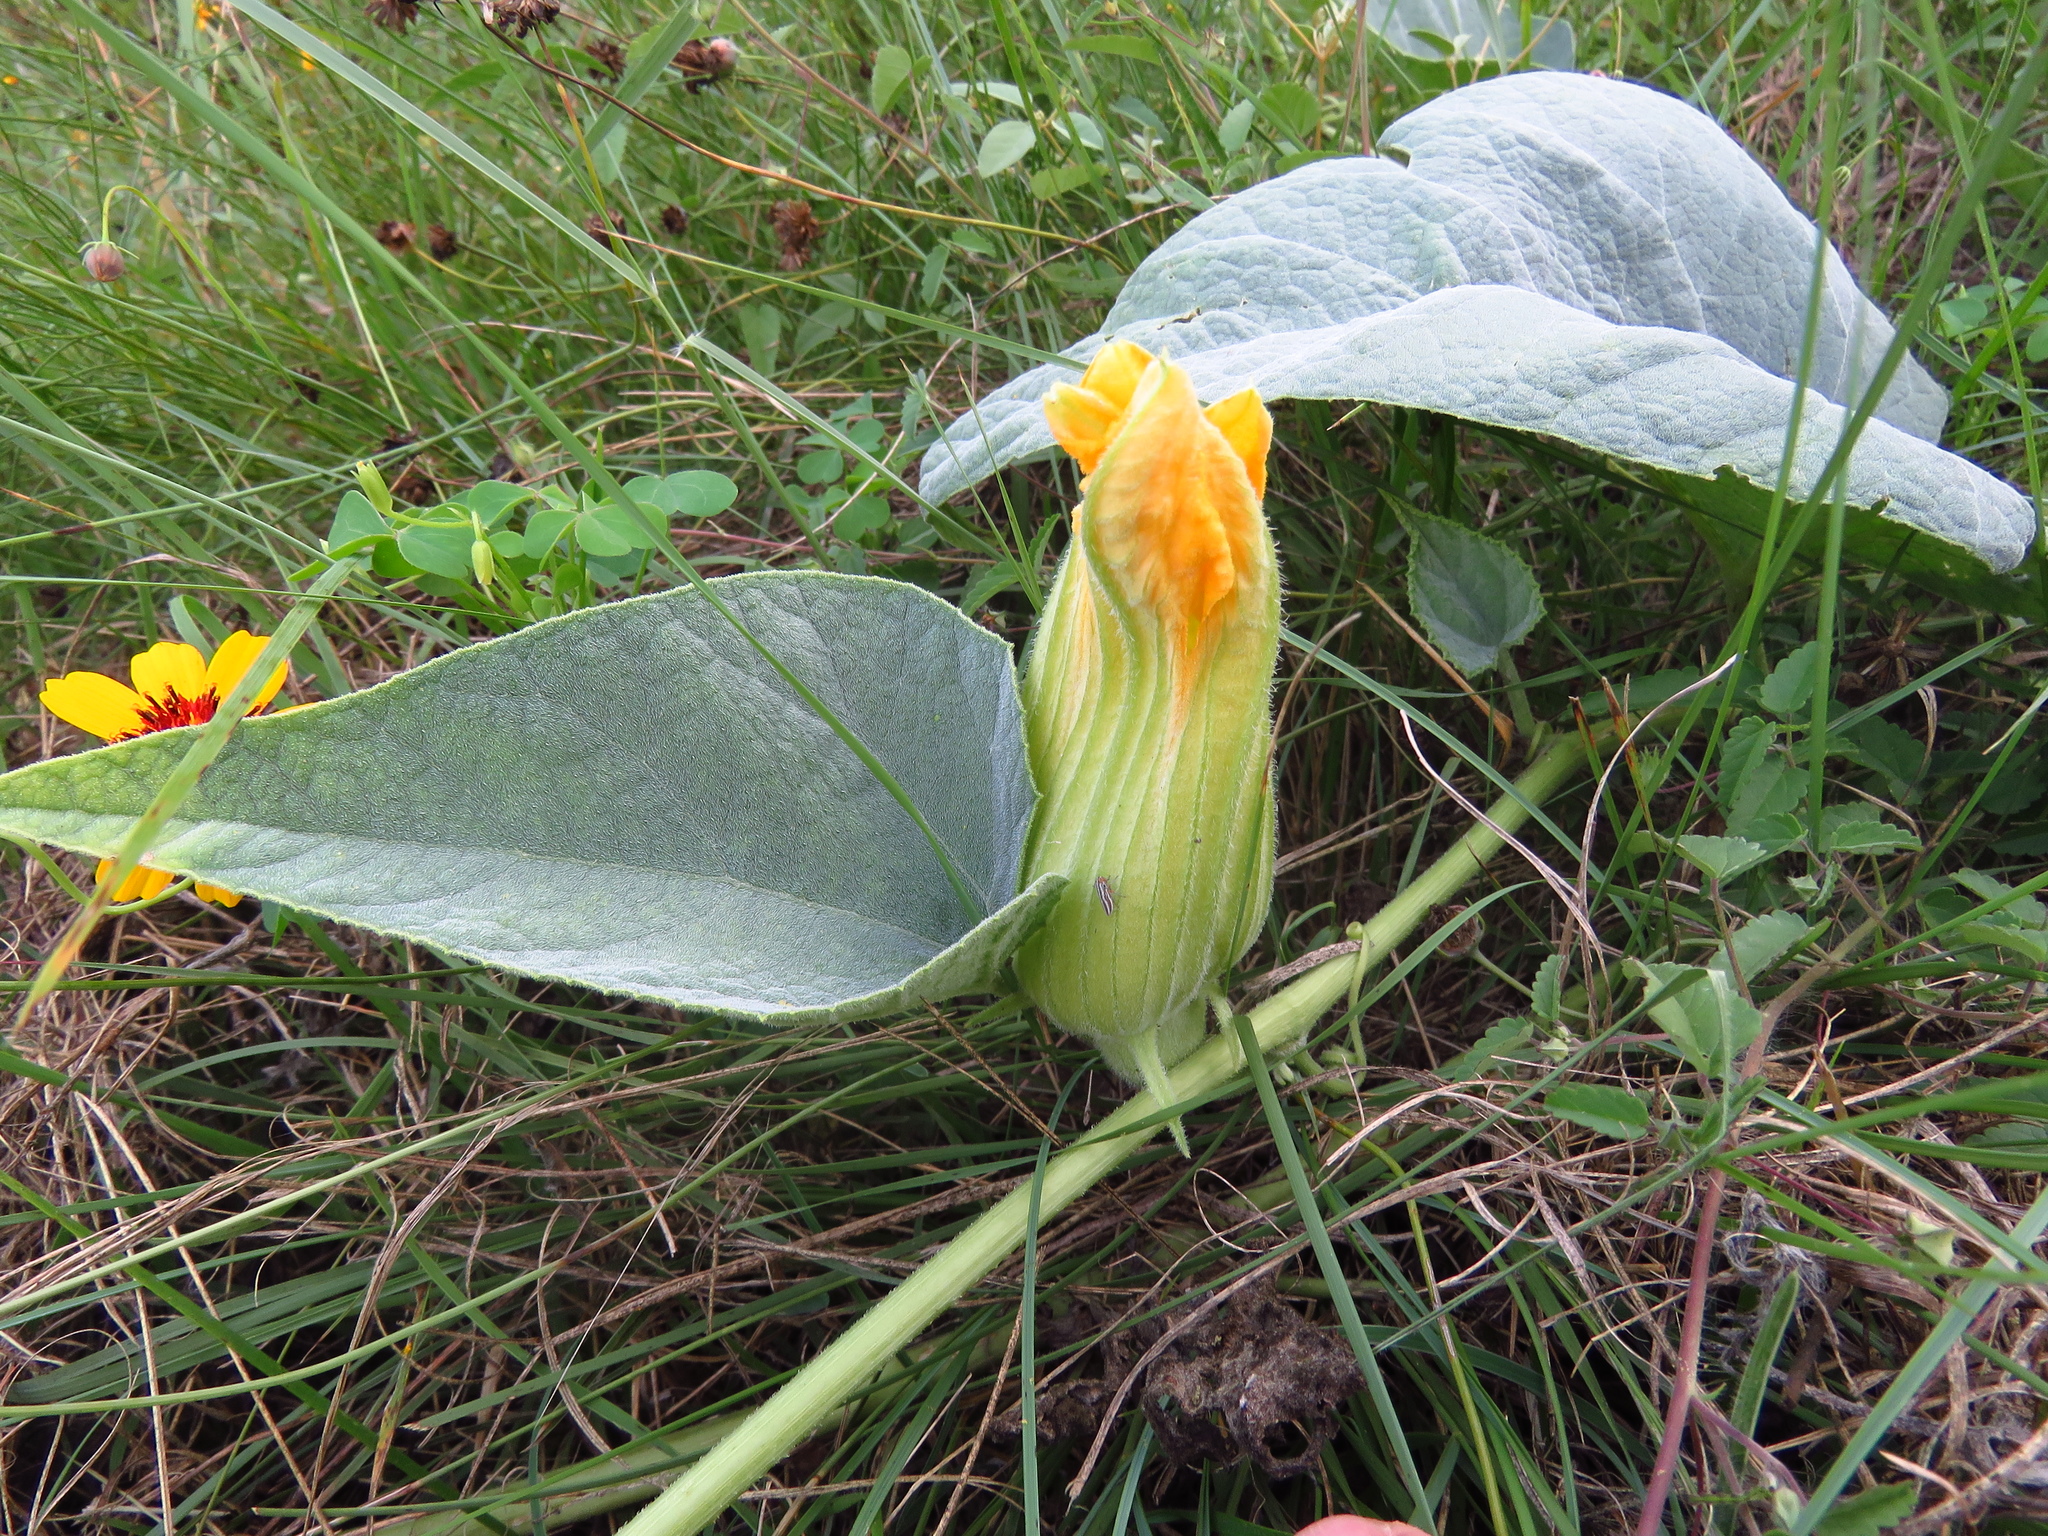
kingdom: Plantae
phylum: Tracheophyta
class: Magnoliopsida
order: Cucurbitales
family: Cucurbitaceae
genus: Cucurbita
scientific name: Cucurbita foetidissima
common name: Buffalo gourd
